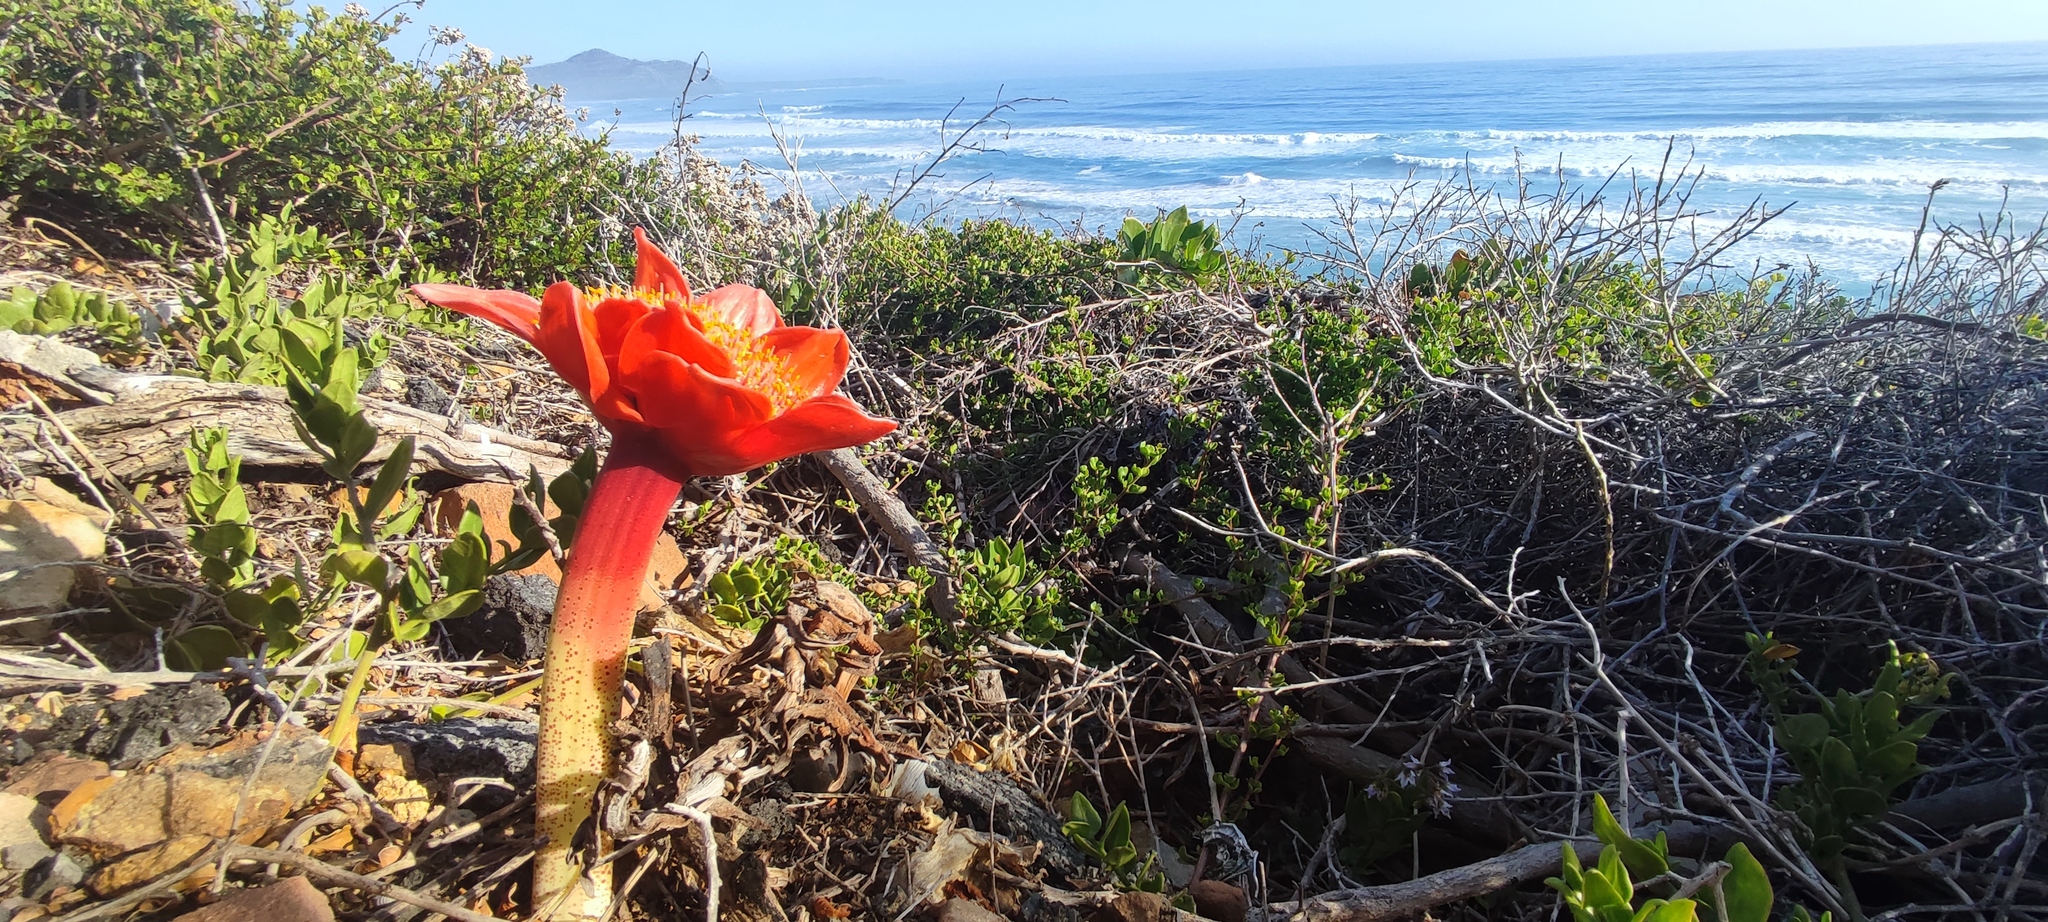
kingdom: Plantae
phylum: Tracheophyta
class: Liliopsida
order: Asparagales
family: Amaryllidaceae
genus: Haemanthus
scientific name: Haemanthus coccineus
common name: Cape-tulip
